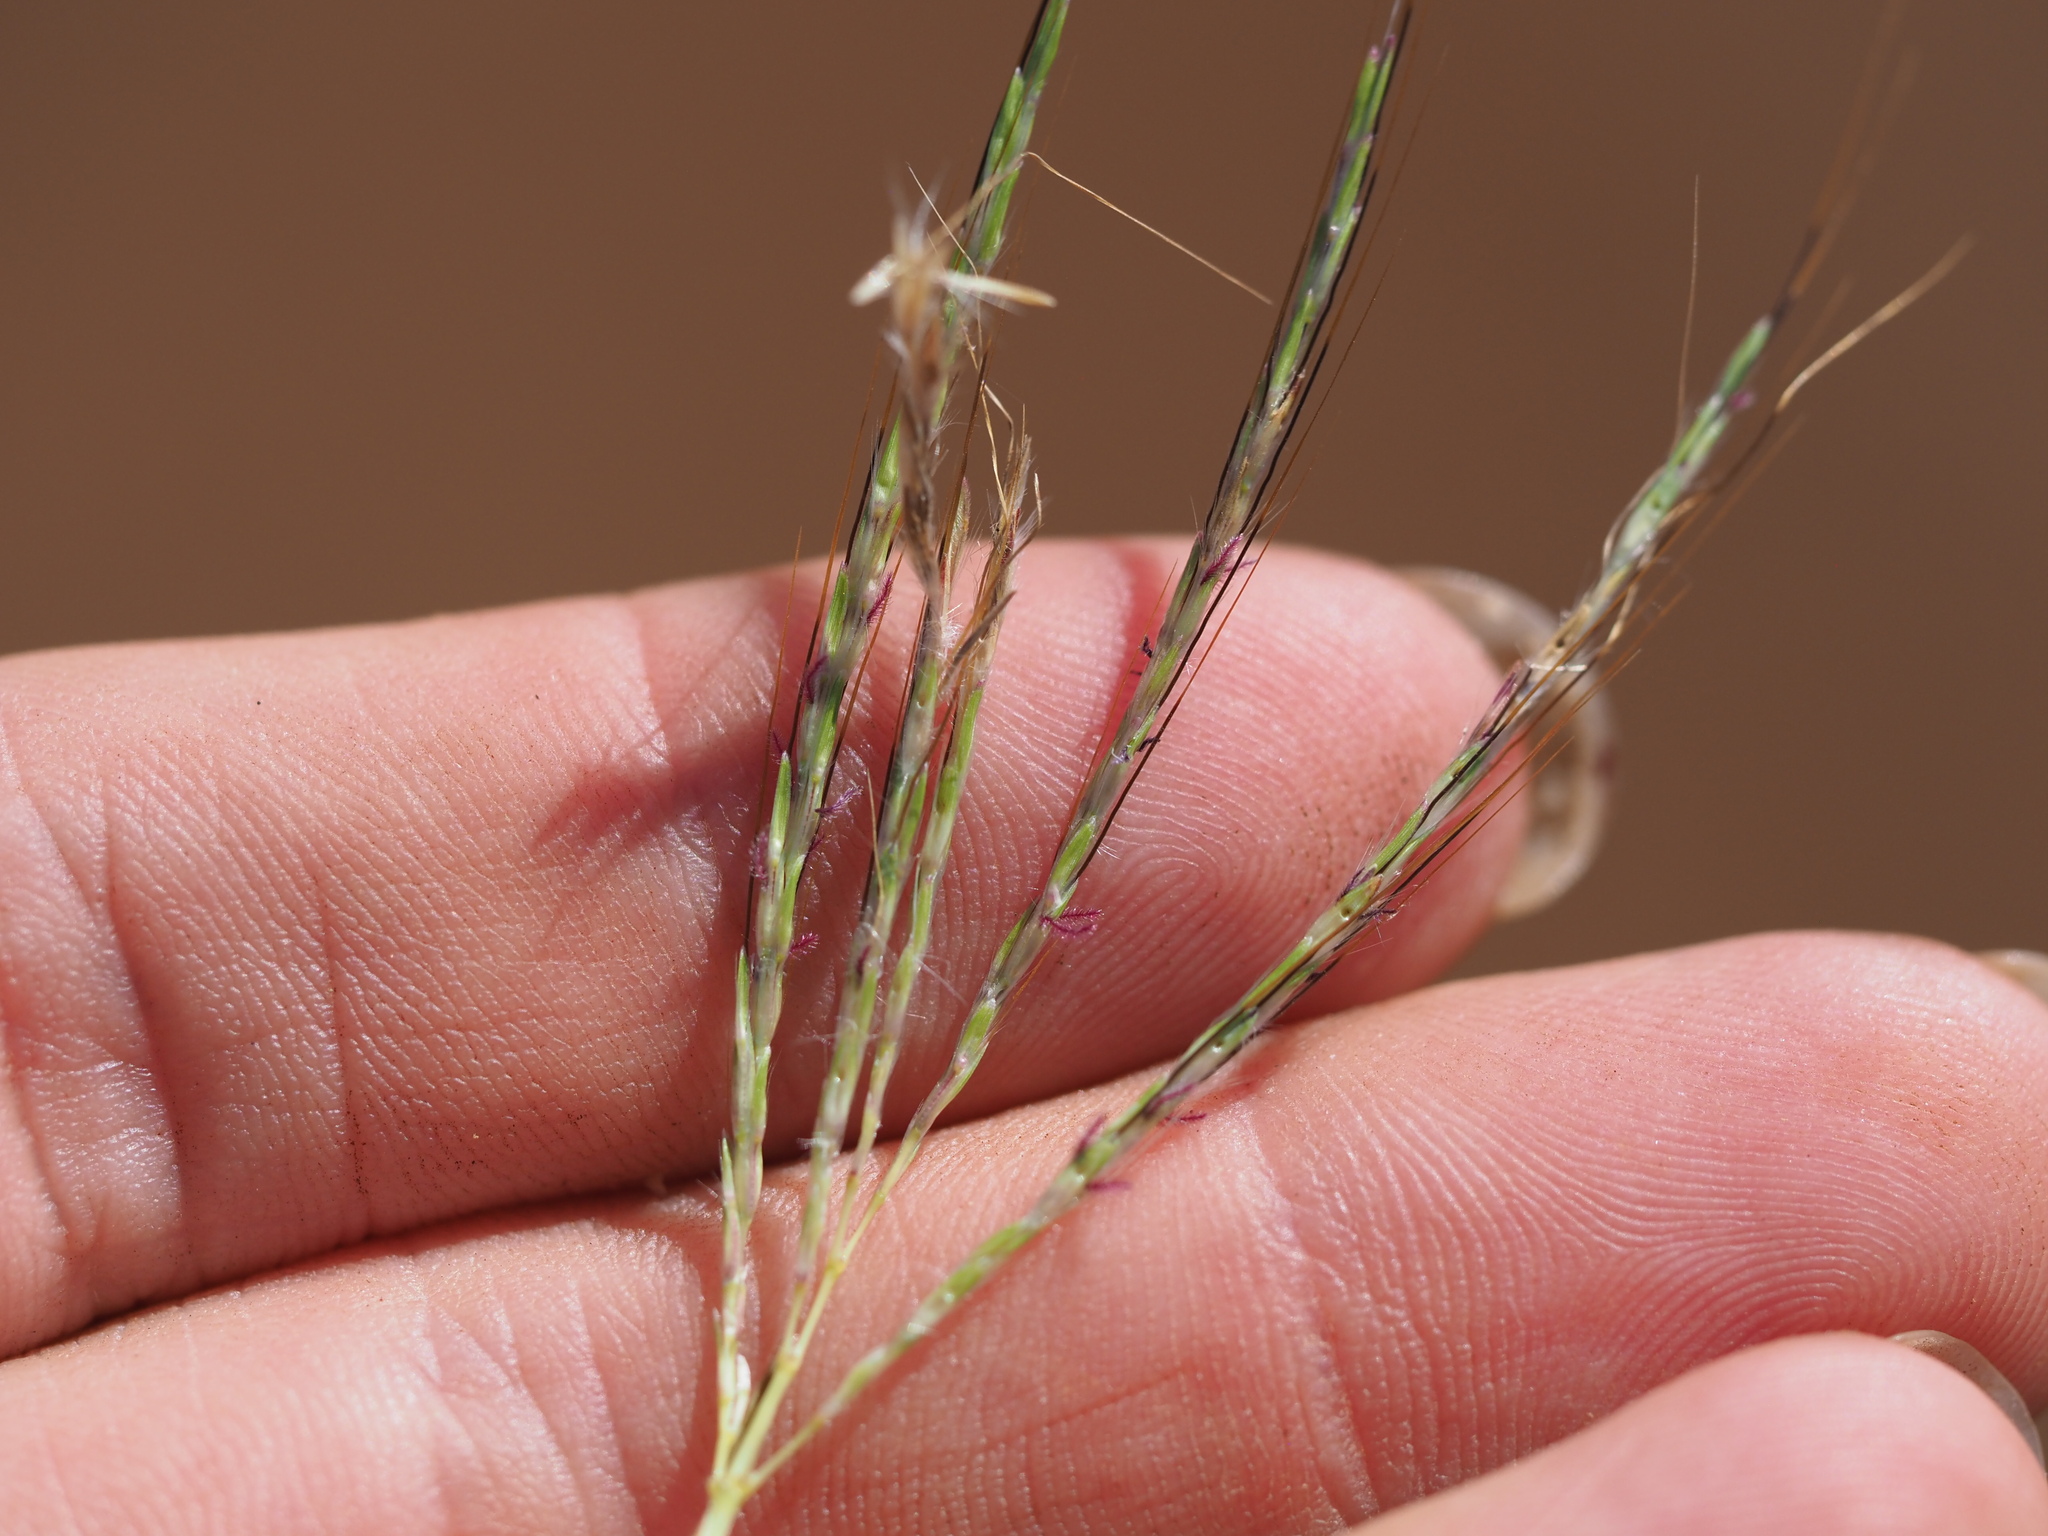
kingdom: Plantae
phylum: Tracheophyta
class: Liliopsida
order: Poales
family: Poaceae
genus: Bothriochloa
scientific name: Bothriochloa pertusa
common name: Pitted beardgrass
